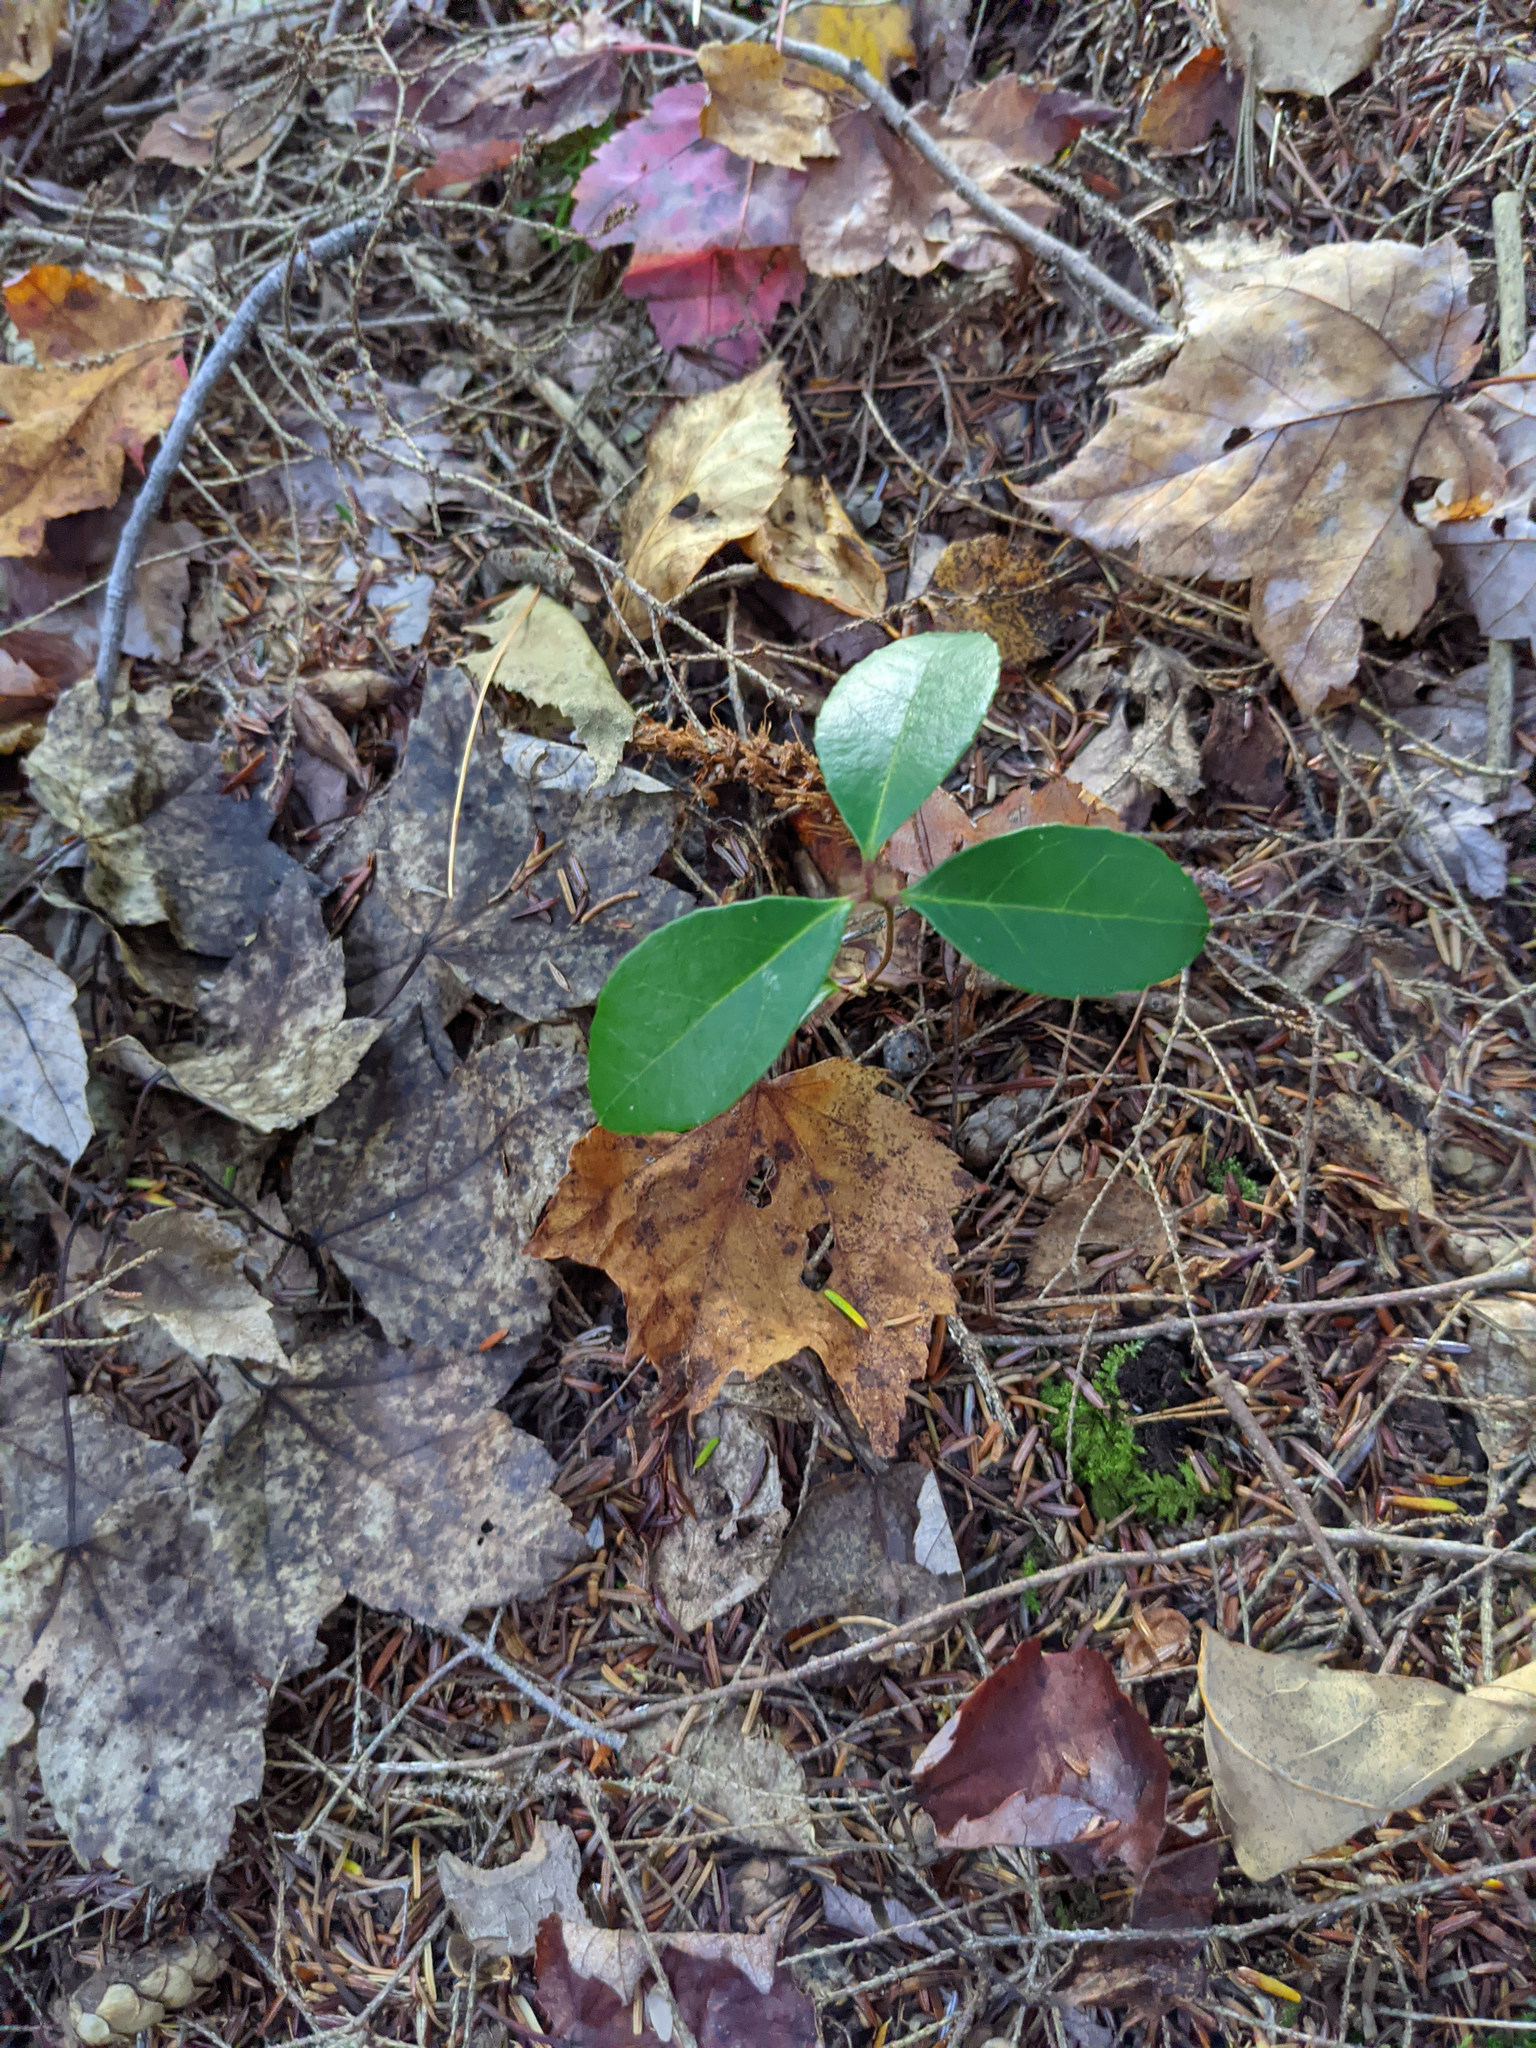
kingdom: Plantae
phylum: Tracheophyta
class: Magnoliopsida
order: Ericales
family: Ericaceae
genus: Gaultheria
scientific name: Gaultheria procumbens
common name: Checkerberry
